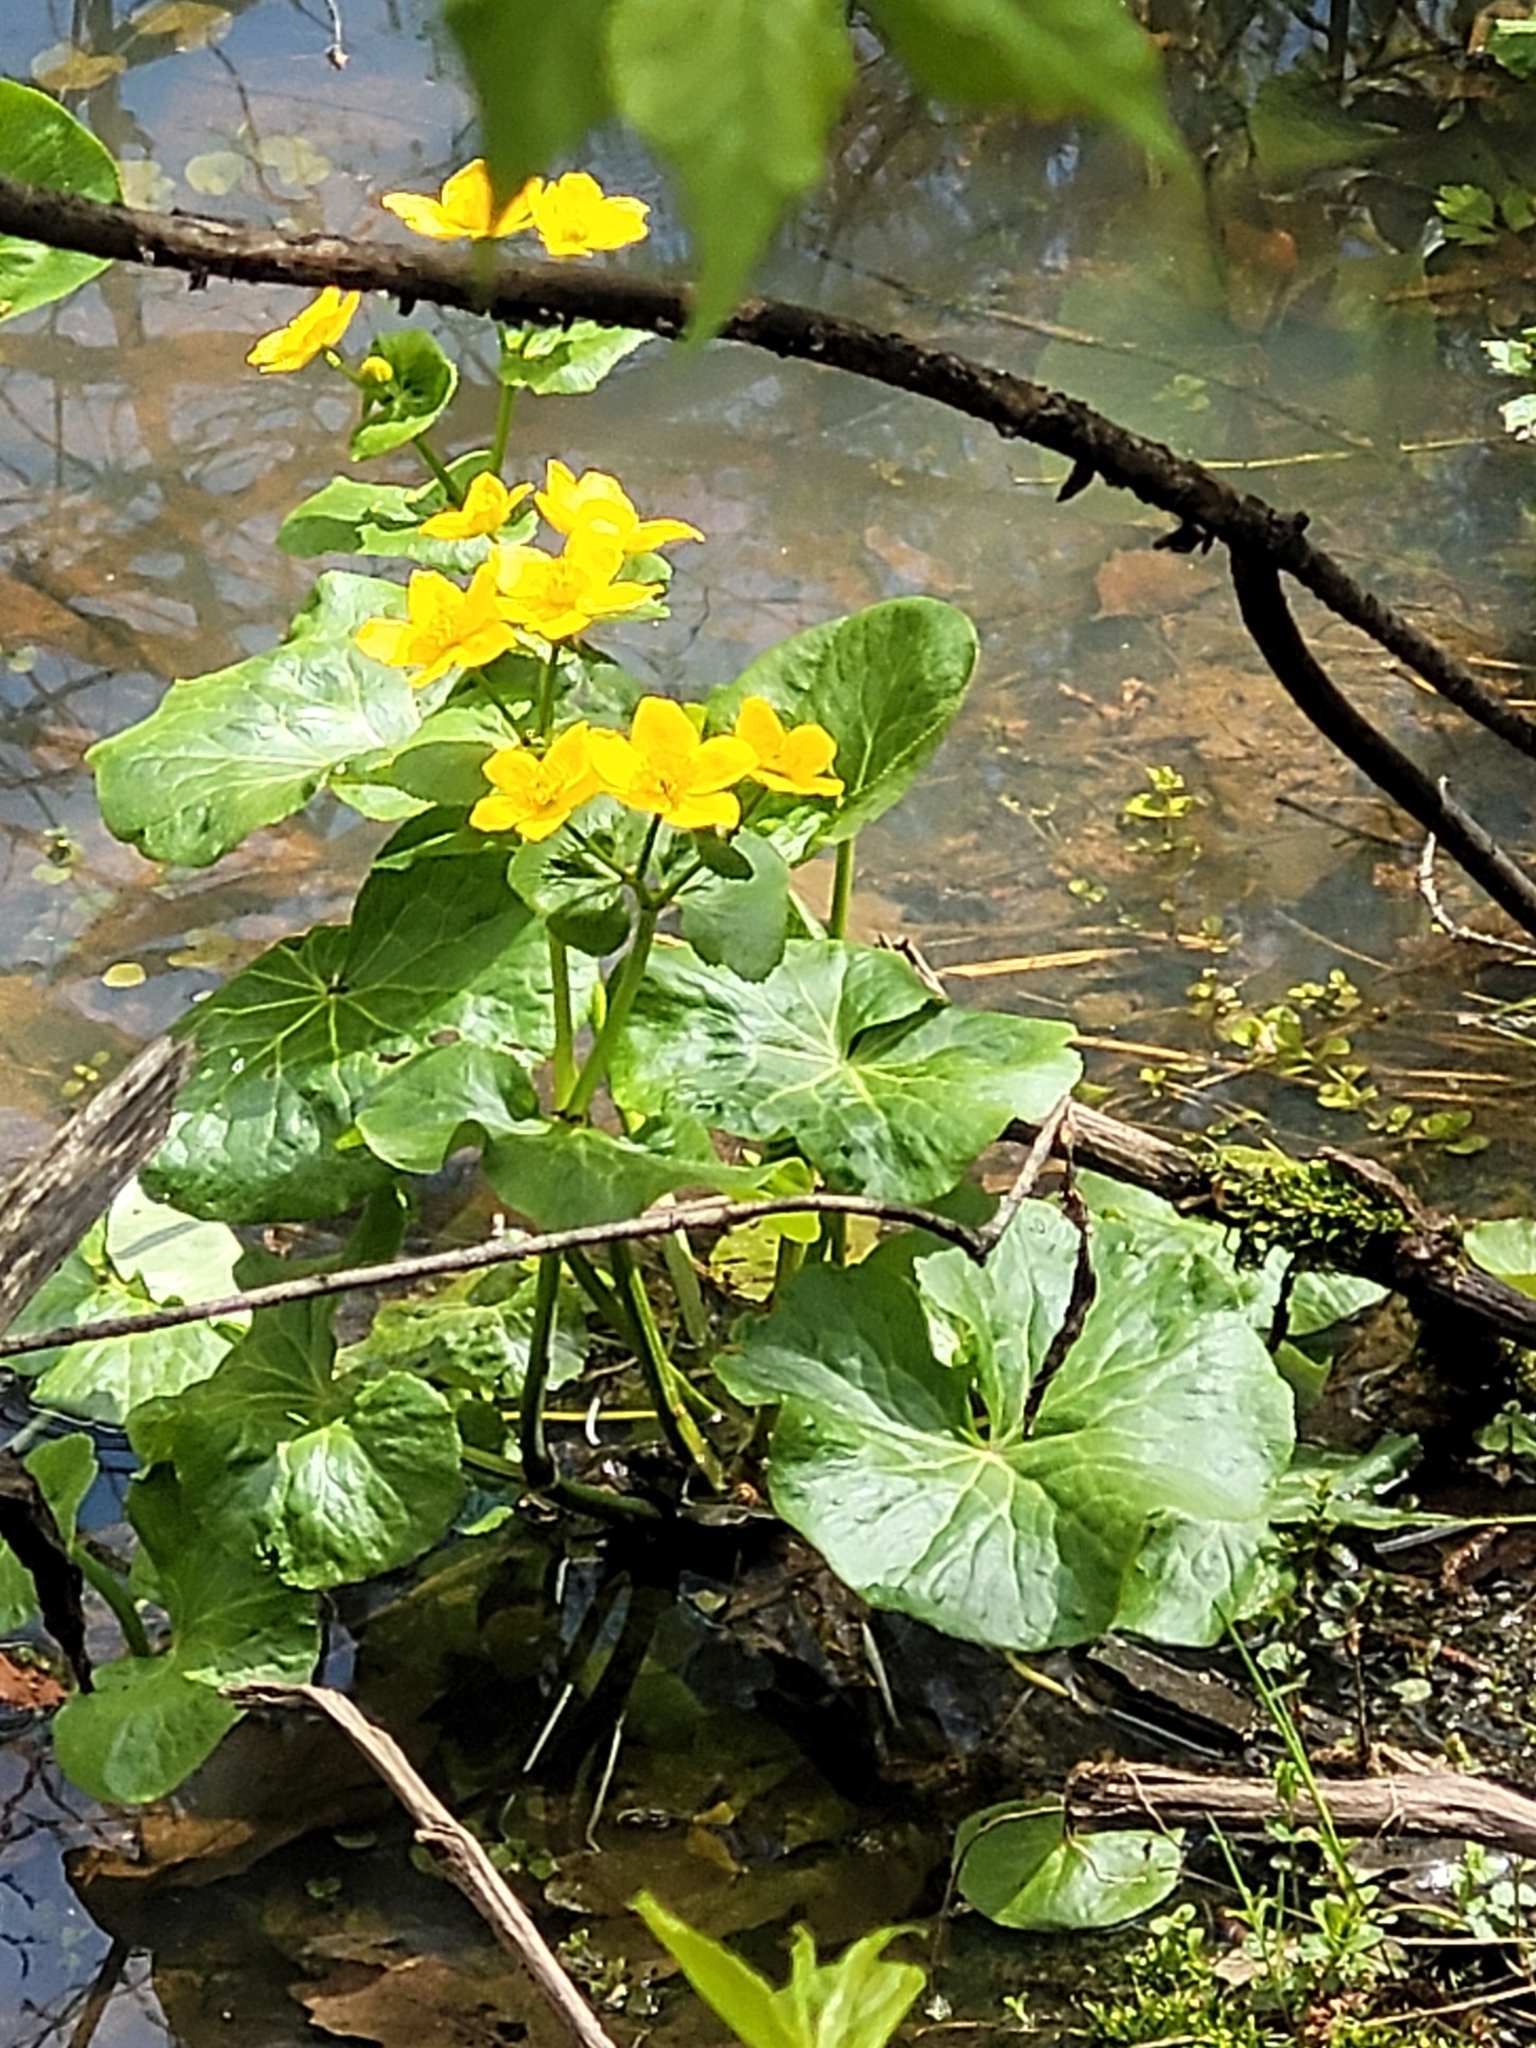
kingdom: Plantae
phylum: Tracheophyta
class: Magnoliopsida
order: Ranunculales
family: Ranunculaceae
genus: Caltha
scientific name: Caltha palustris
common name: Marsh marigold
